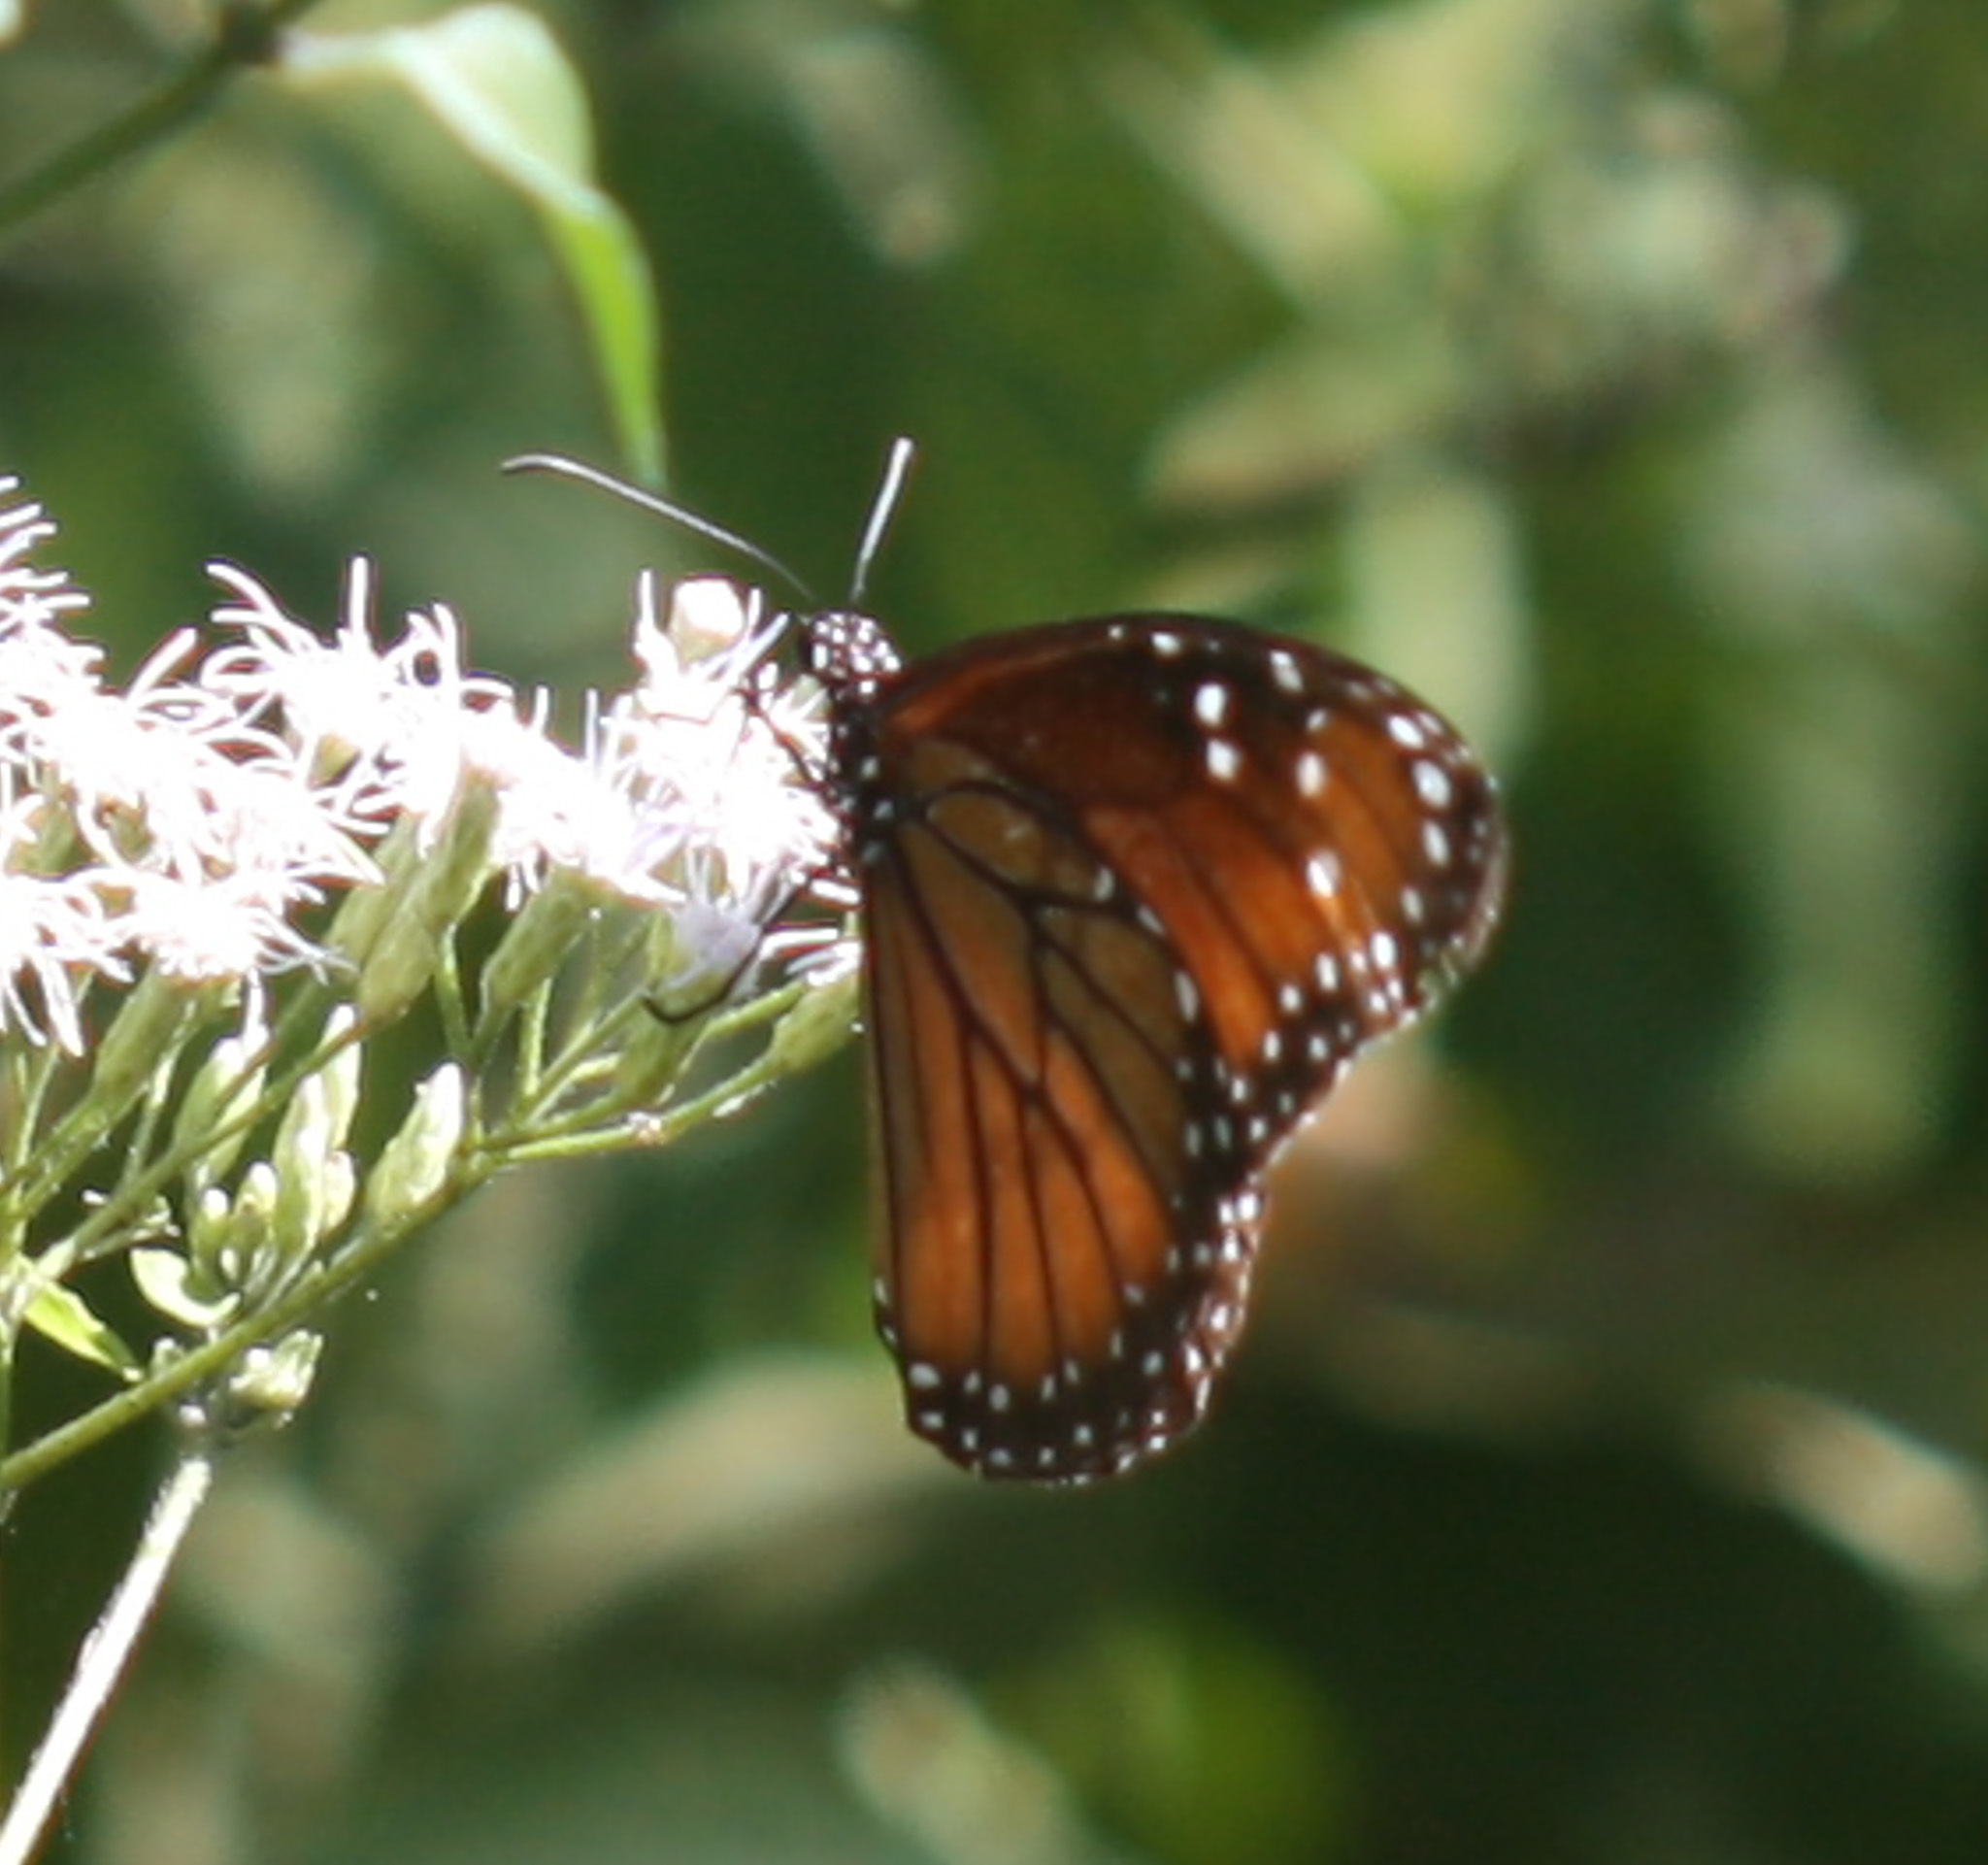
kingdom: Animalia
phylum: Arthropoda
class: Insecta
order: Lepidoptera
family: Nymphalidae
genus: Danaus
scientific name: Danaus eresimus
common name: Soldier
